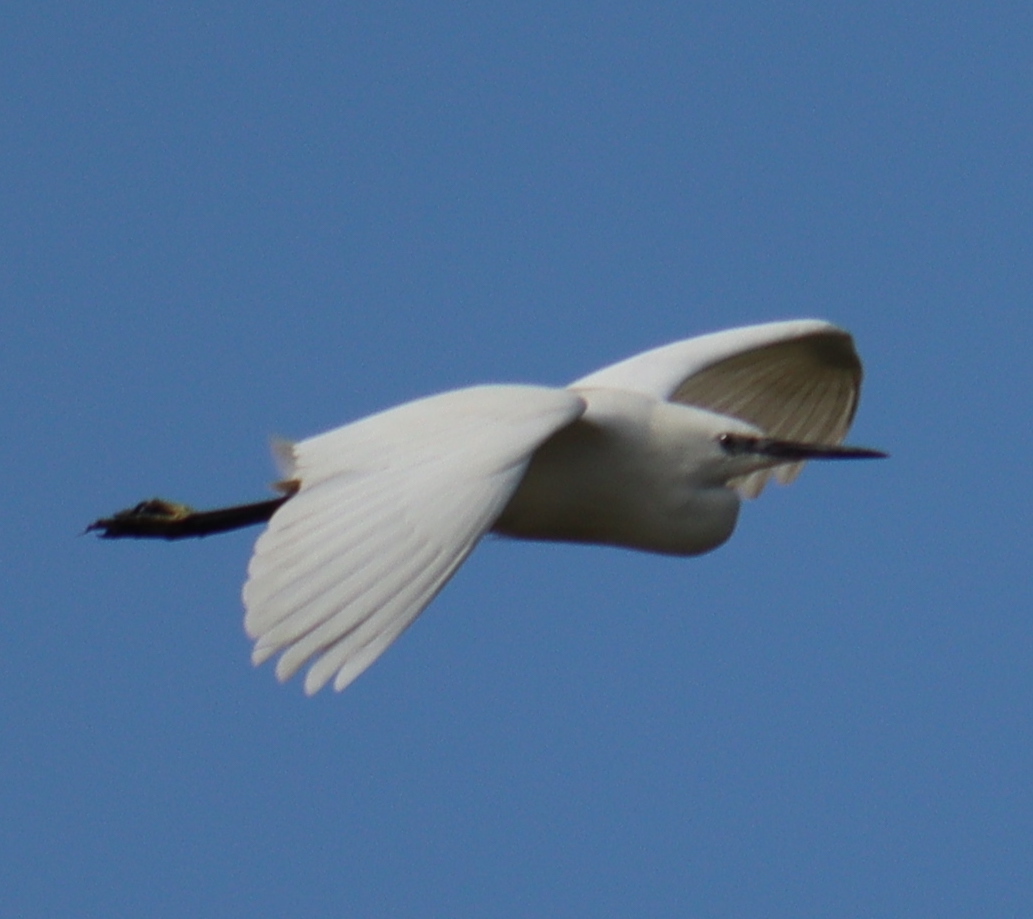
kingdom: Animalia
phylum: Chordata
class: Aves
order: Pelecaniformes
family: Ardeidae
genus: Egretta
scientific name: Egretta garzetta
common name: Little egret
